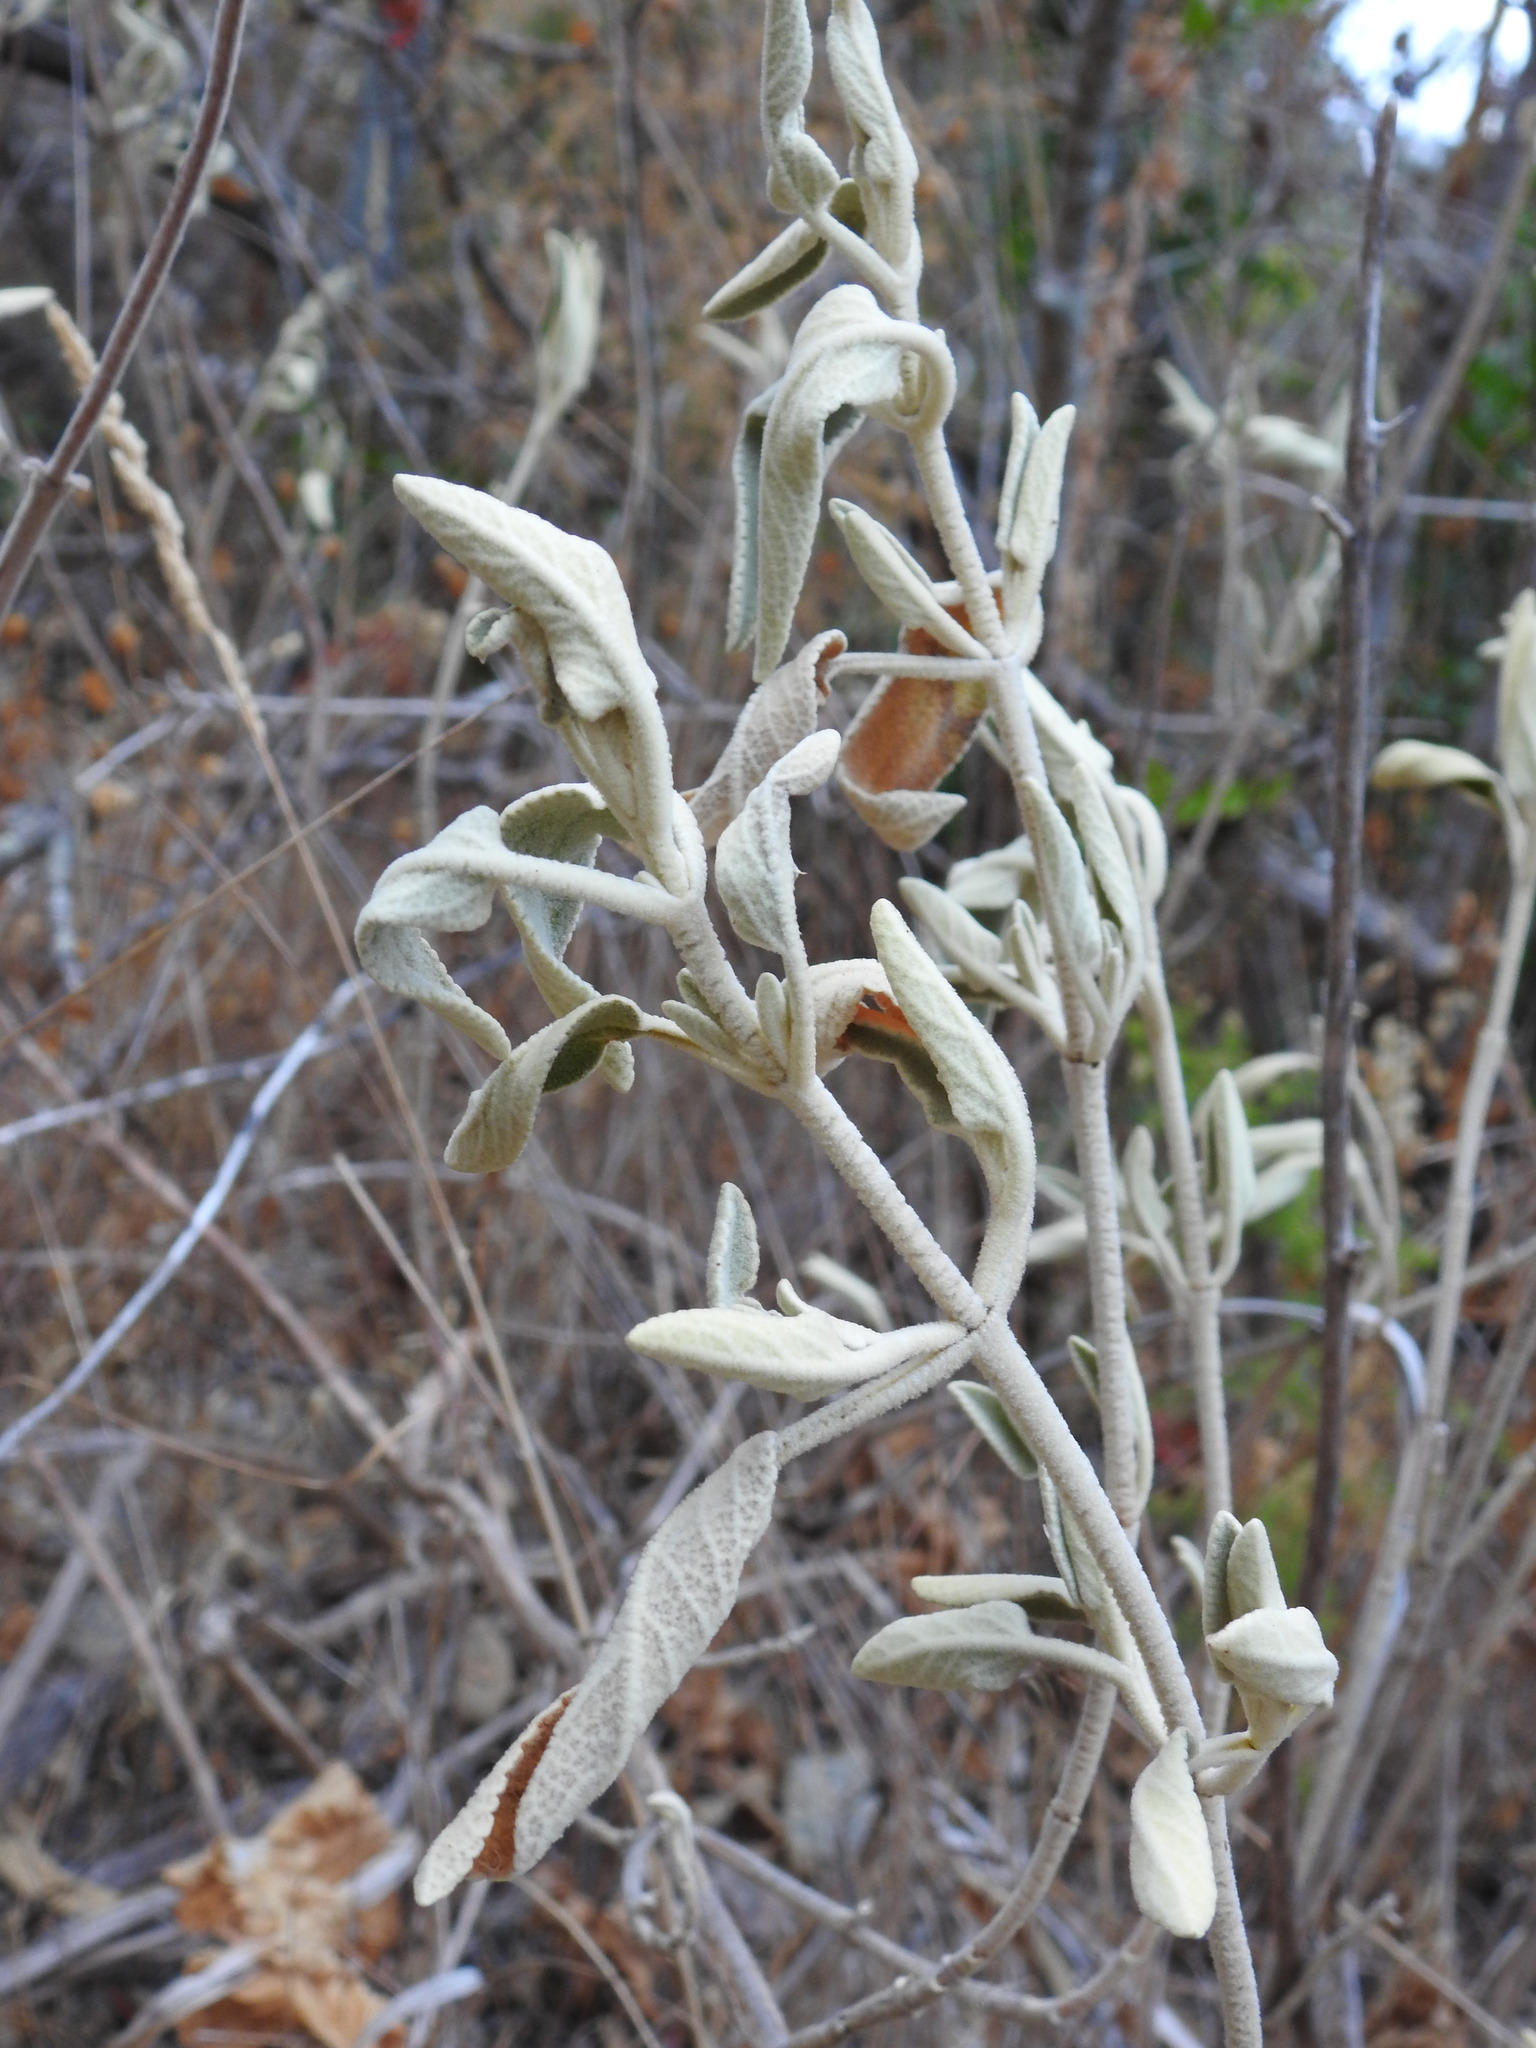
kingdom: Plantae
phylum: Tracheophyta
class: Magnoliopsida
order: Lamiales
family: Lamiaceae
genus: Phlomis
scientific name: Phlomis purpurea
